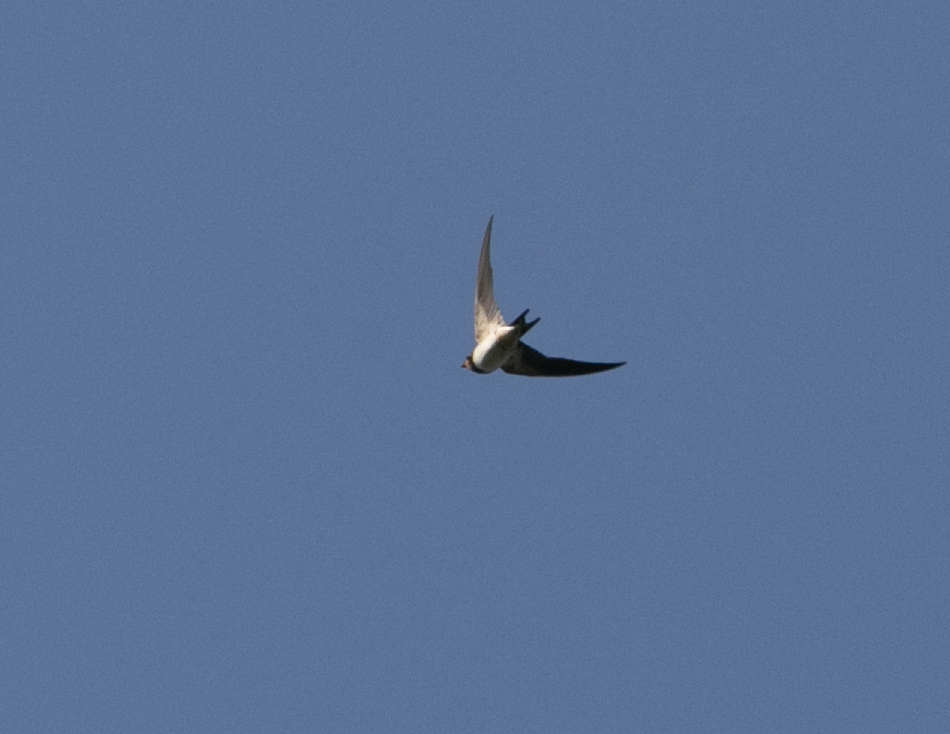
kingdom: Animalia
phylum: Chordata
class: Aves
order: Passeriformes
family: Hirundinidae
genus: Hirundo
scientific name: Hirundo rustica
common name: Barn swallow
